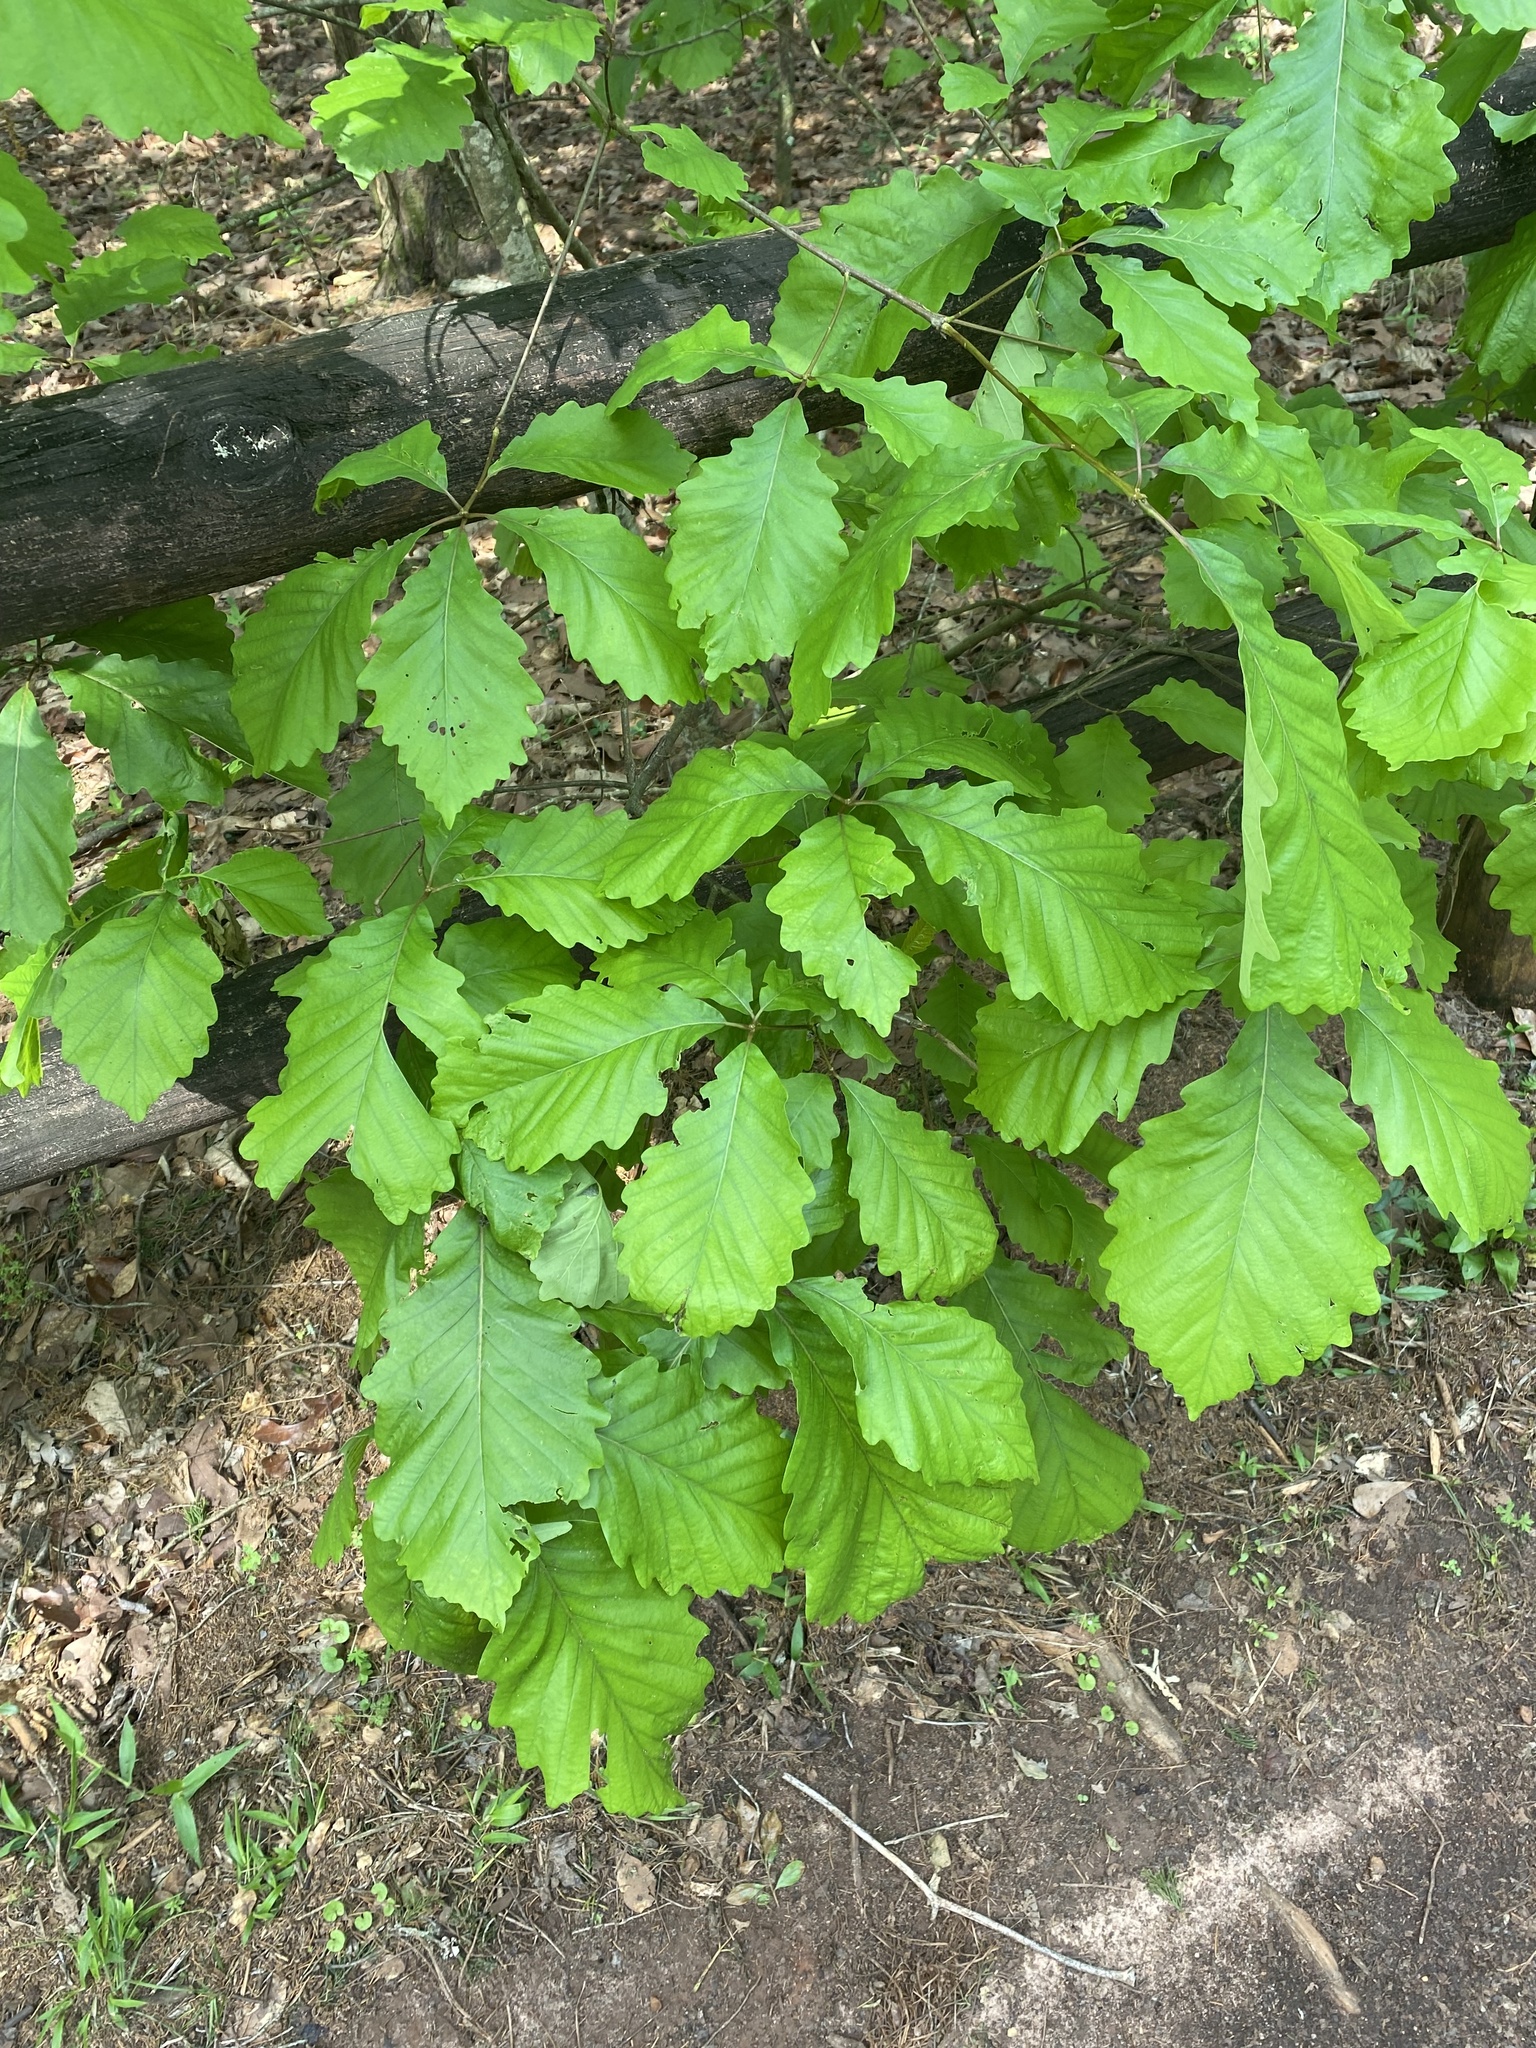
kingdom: Plantae
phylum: Tracheophyta
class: Magnoliopsida
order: Fagales
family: Fagaceae
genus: Quercus
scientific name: Quercus michauxii
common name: Swamp chestnut oak
